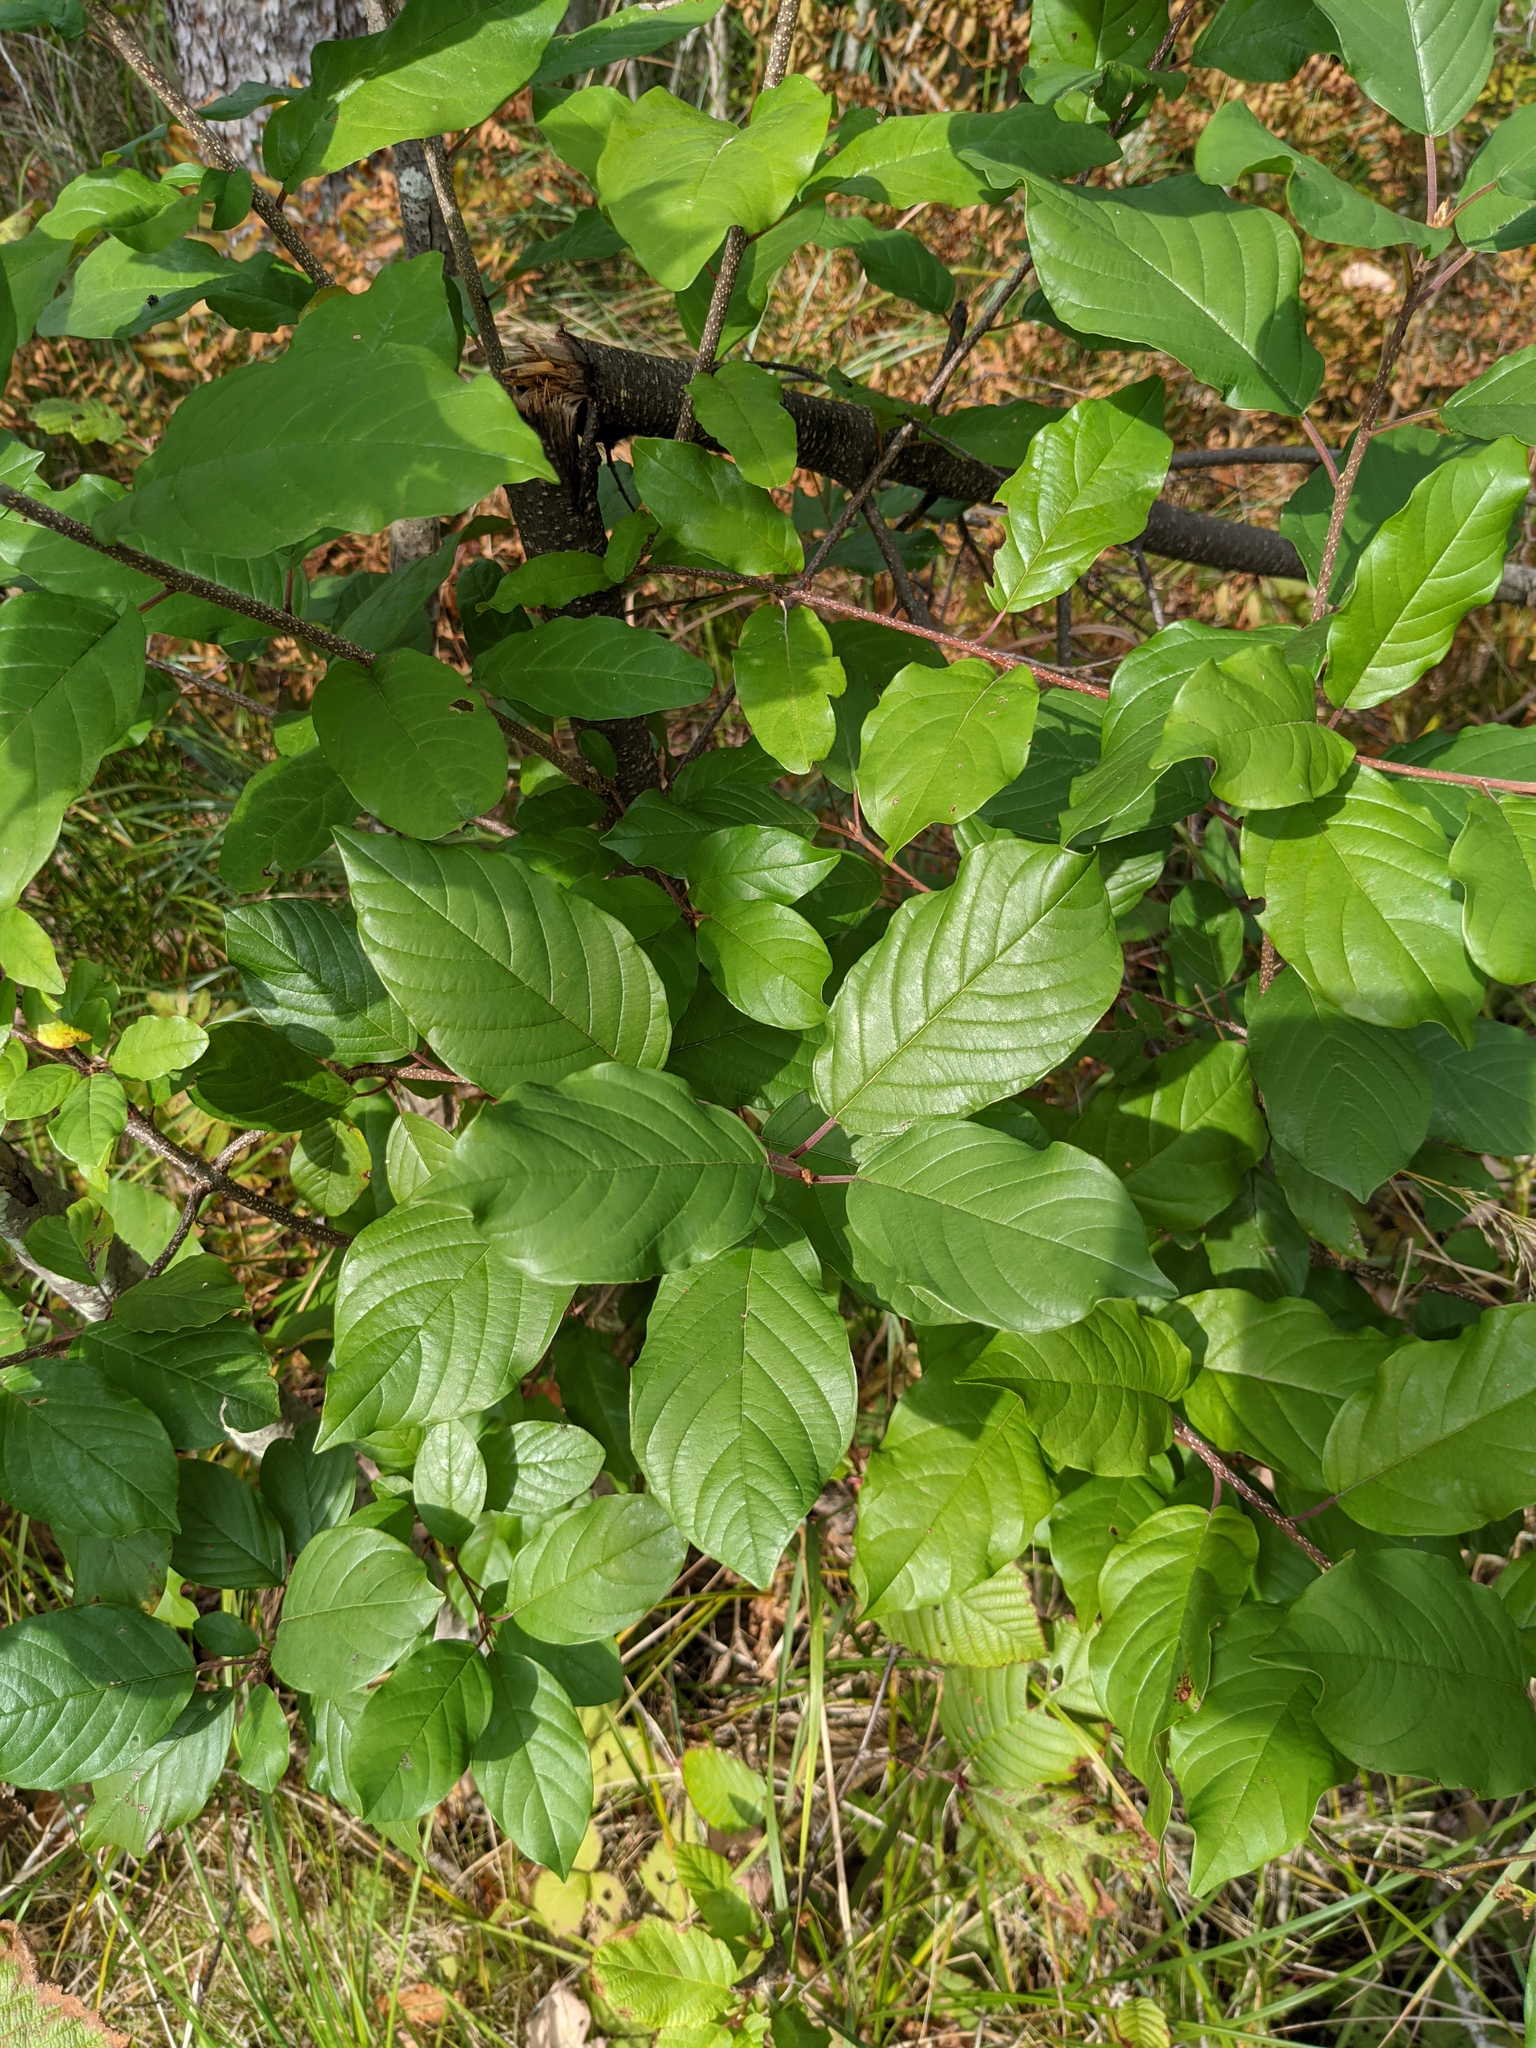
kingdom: Plantae
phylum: Tracheophyta
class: Magnoliopsida
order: Rosales
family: Rhamnaceae
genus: Frangula
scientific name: Frangula alnus
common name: Alder buckthorn
